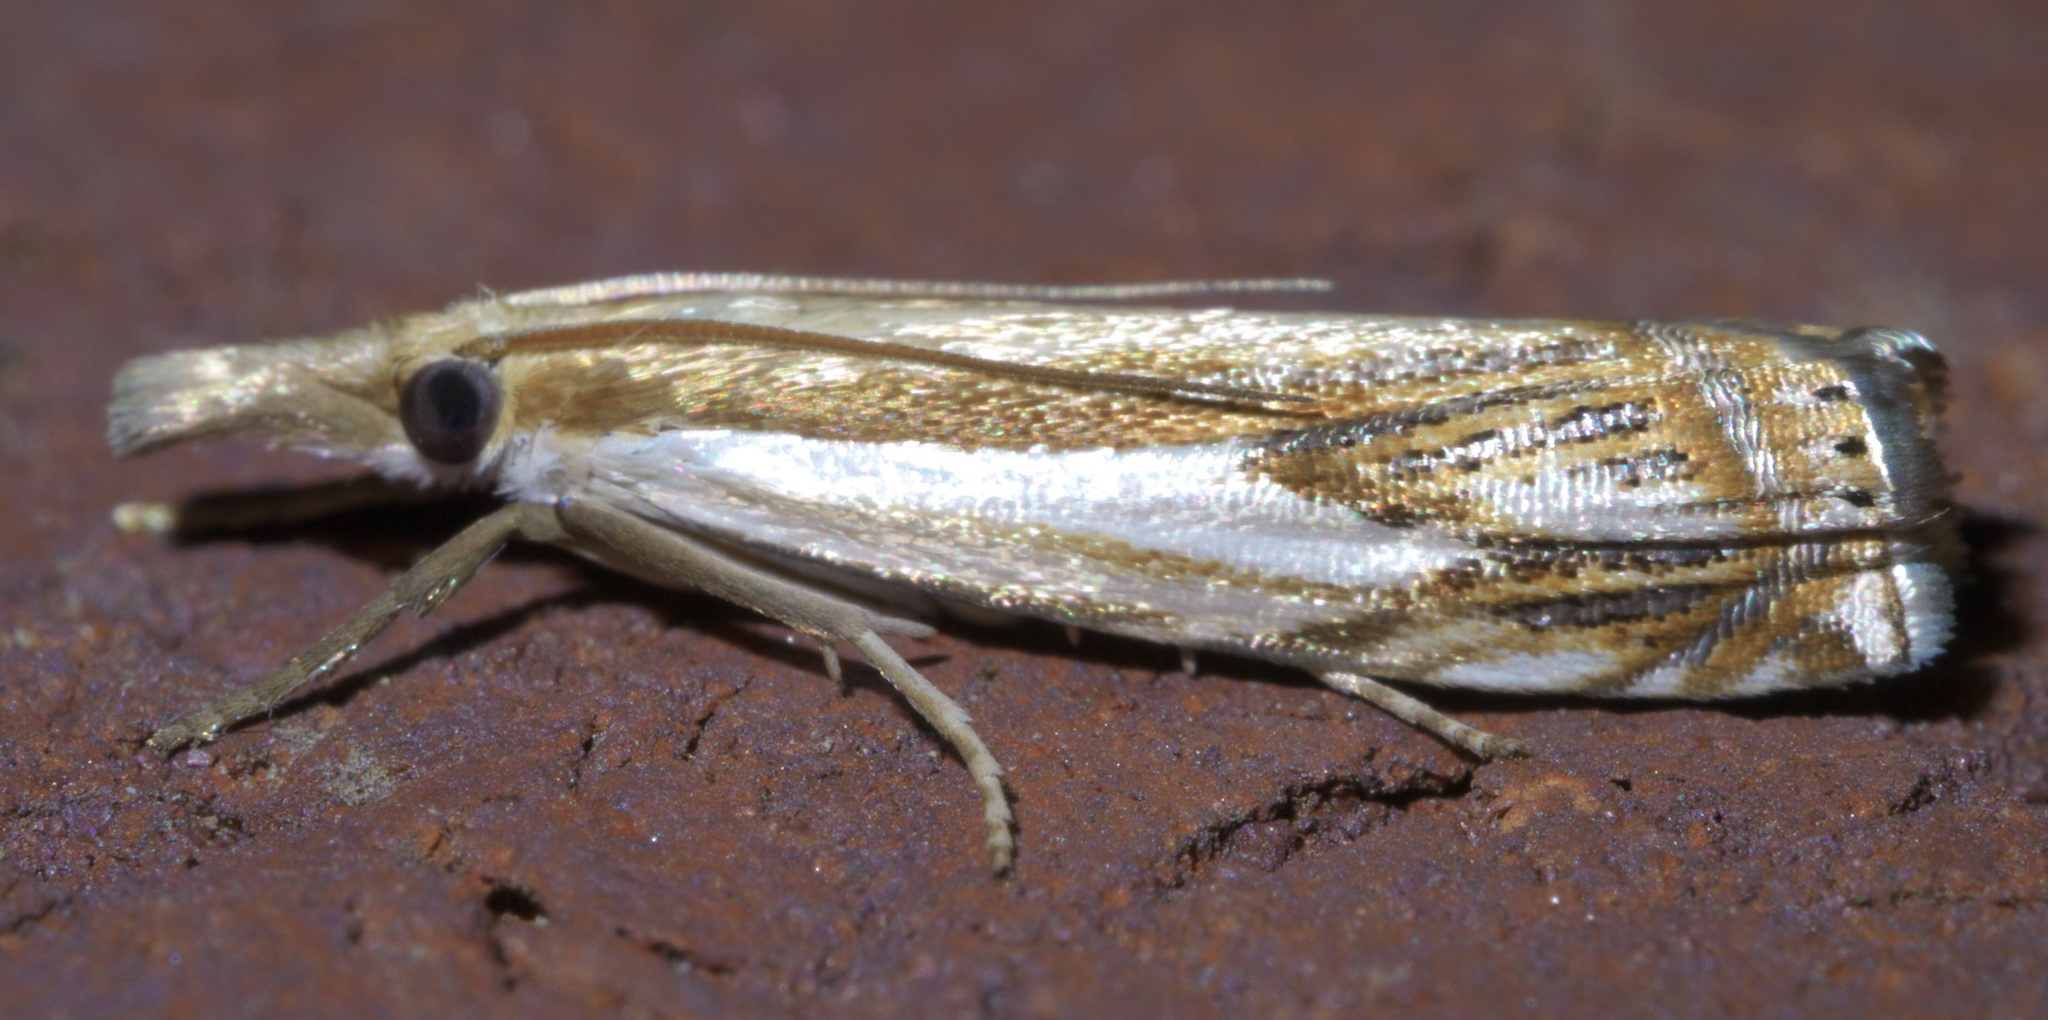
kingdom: Animalia
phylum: Arthropoda
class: Insecta
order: Lepidoptera
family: Crambidae
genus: Crambus
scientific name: Crambus agitatellus
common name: Double-banded grass-veneer
